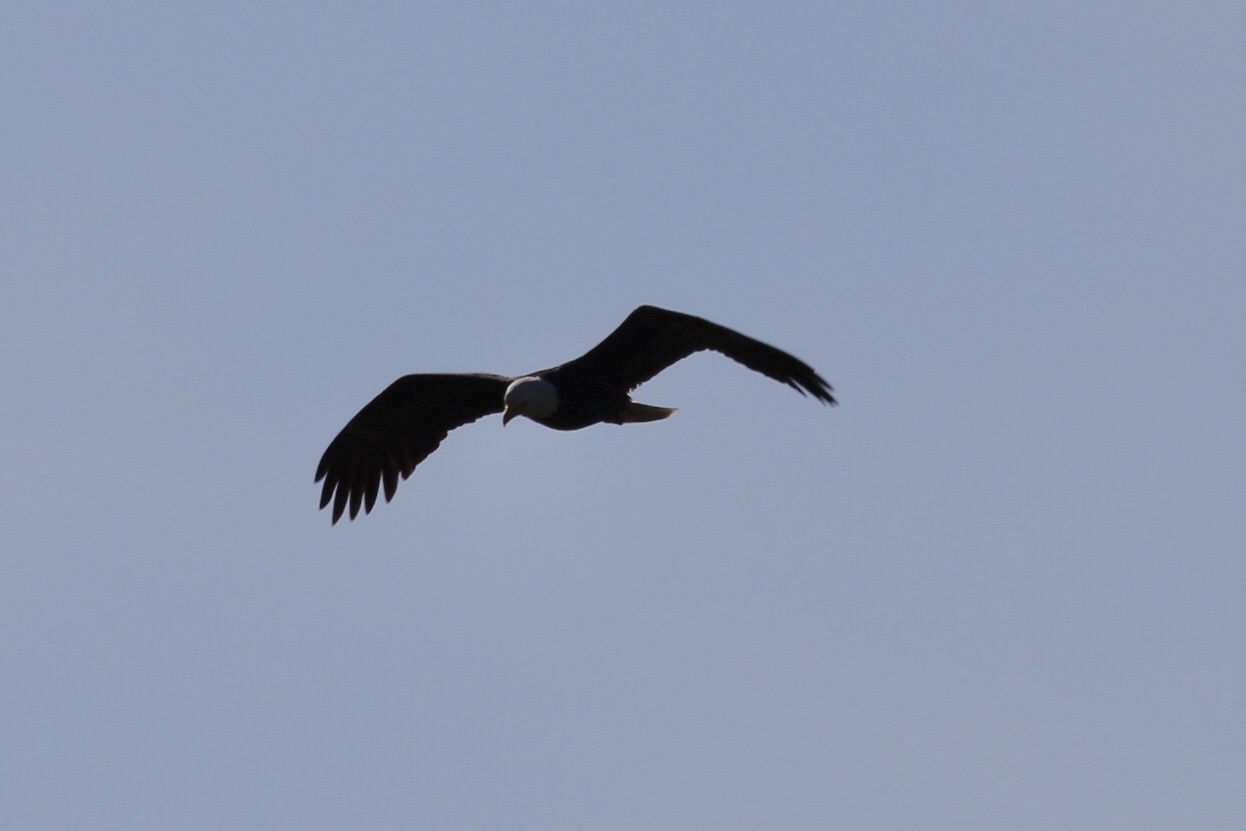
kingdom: Animalia
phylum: Chordata
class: Aves
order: Accipitriformes
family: Accipitridae
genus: Haliaeetus
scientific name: Haliaeetus leucocephalus
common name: Bald eagle
